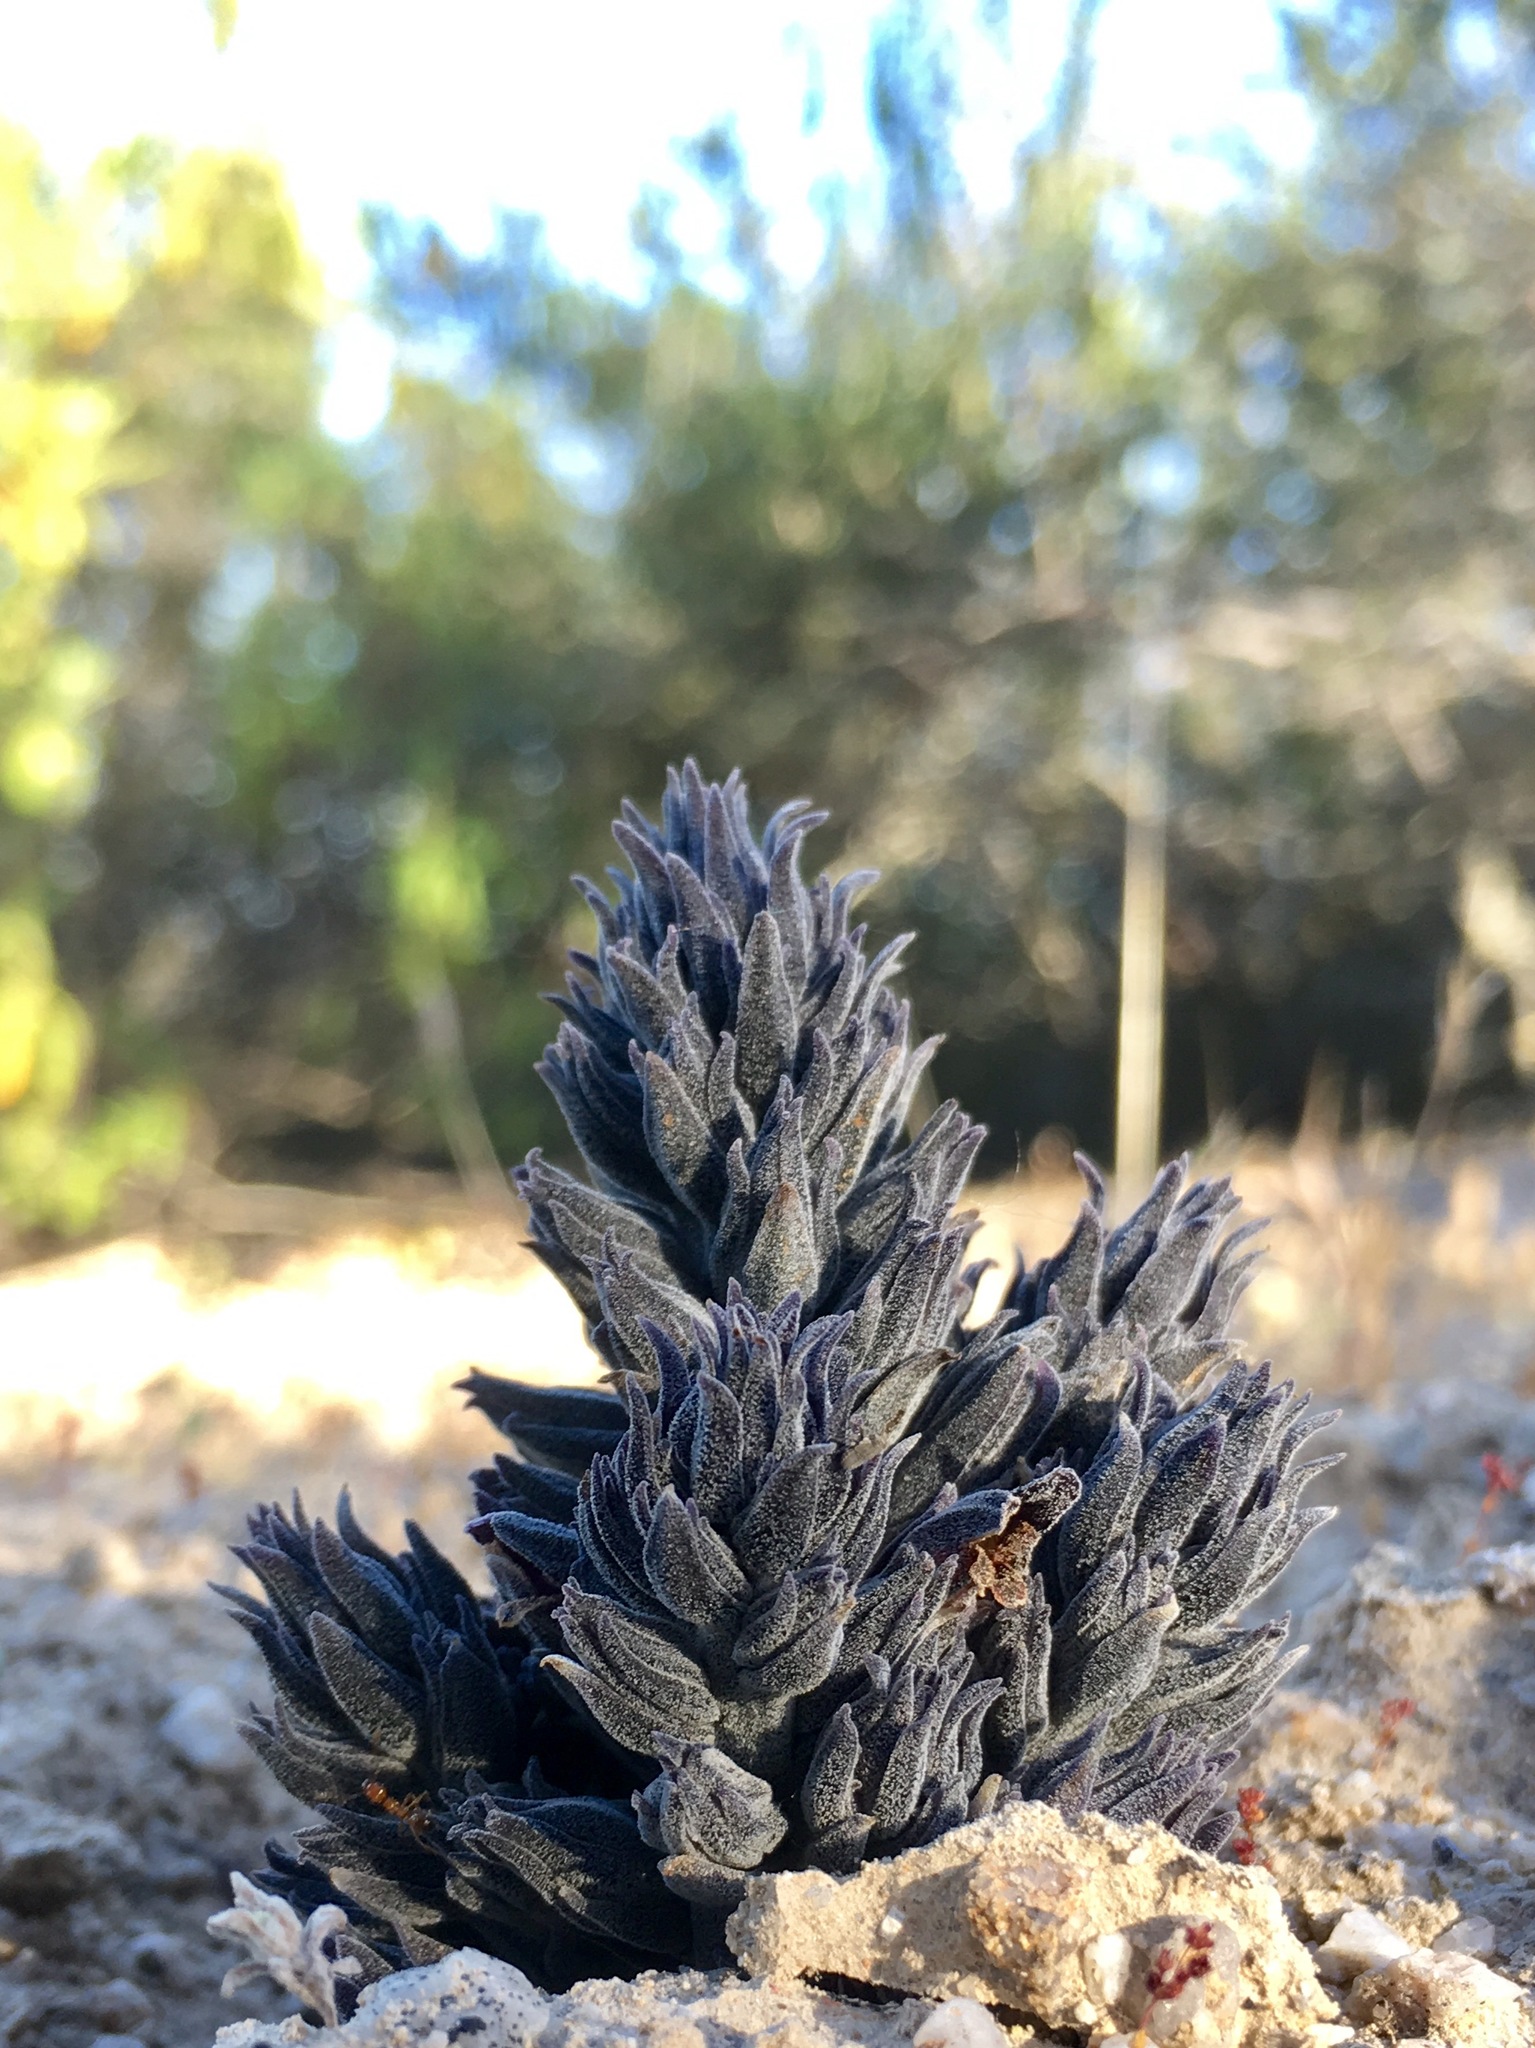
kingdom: Plantae
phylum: Tracheophyta
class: Magnoliopsida
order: Lamiales
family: Orobanchaceae
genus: Aphyllon
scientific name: Aphyllon tuberosum
